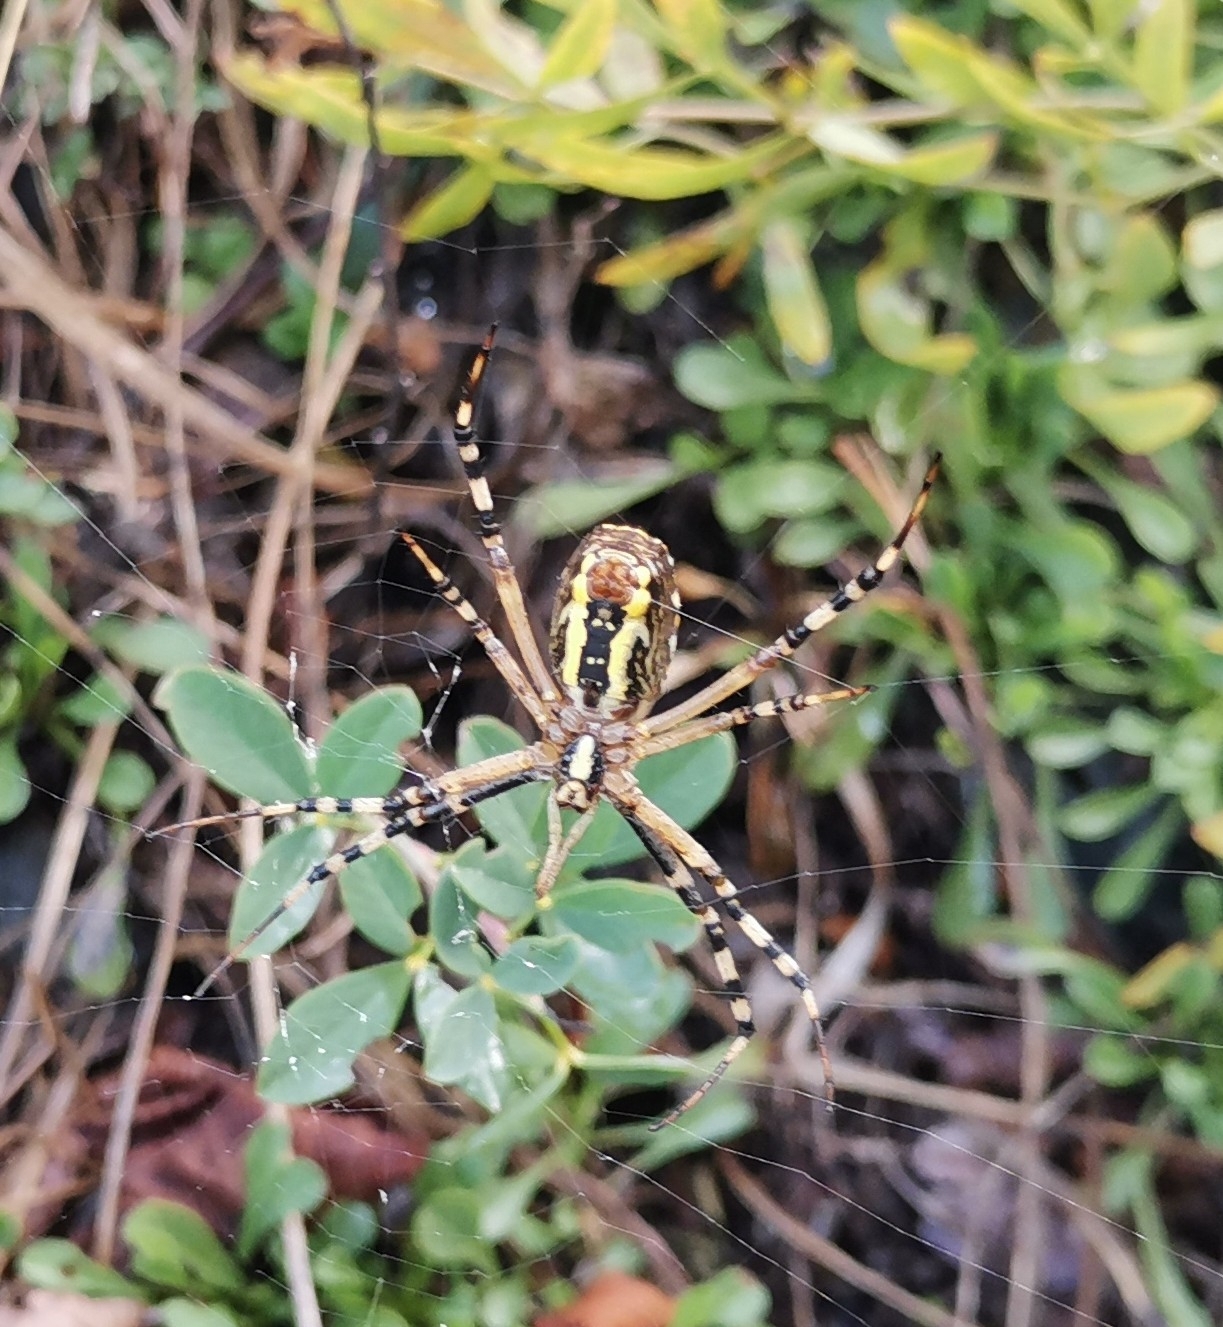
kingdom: Animalia
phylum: Arthropoda
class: Arachnida
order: Araneae
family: Araneidae
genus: Argiope
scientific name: Argiope bruennichi
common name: Wasp spider
